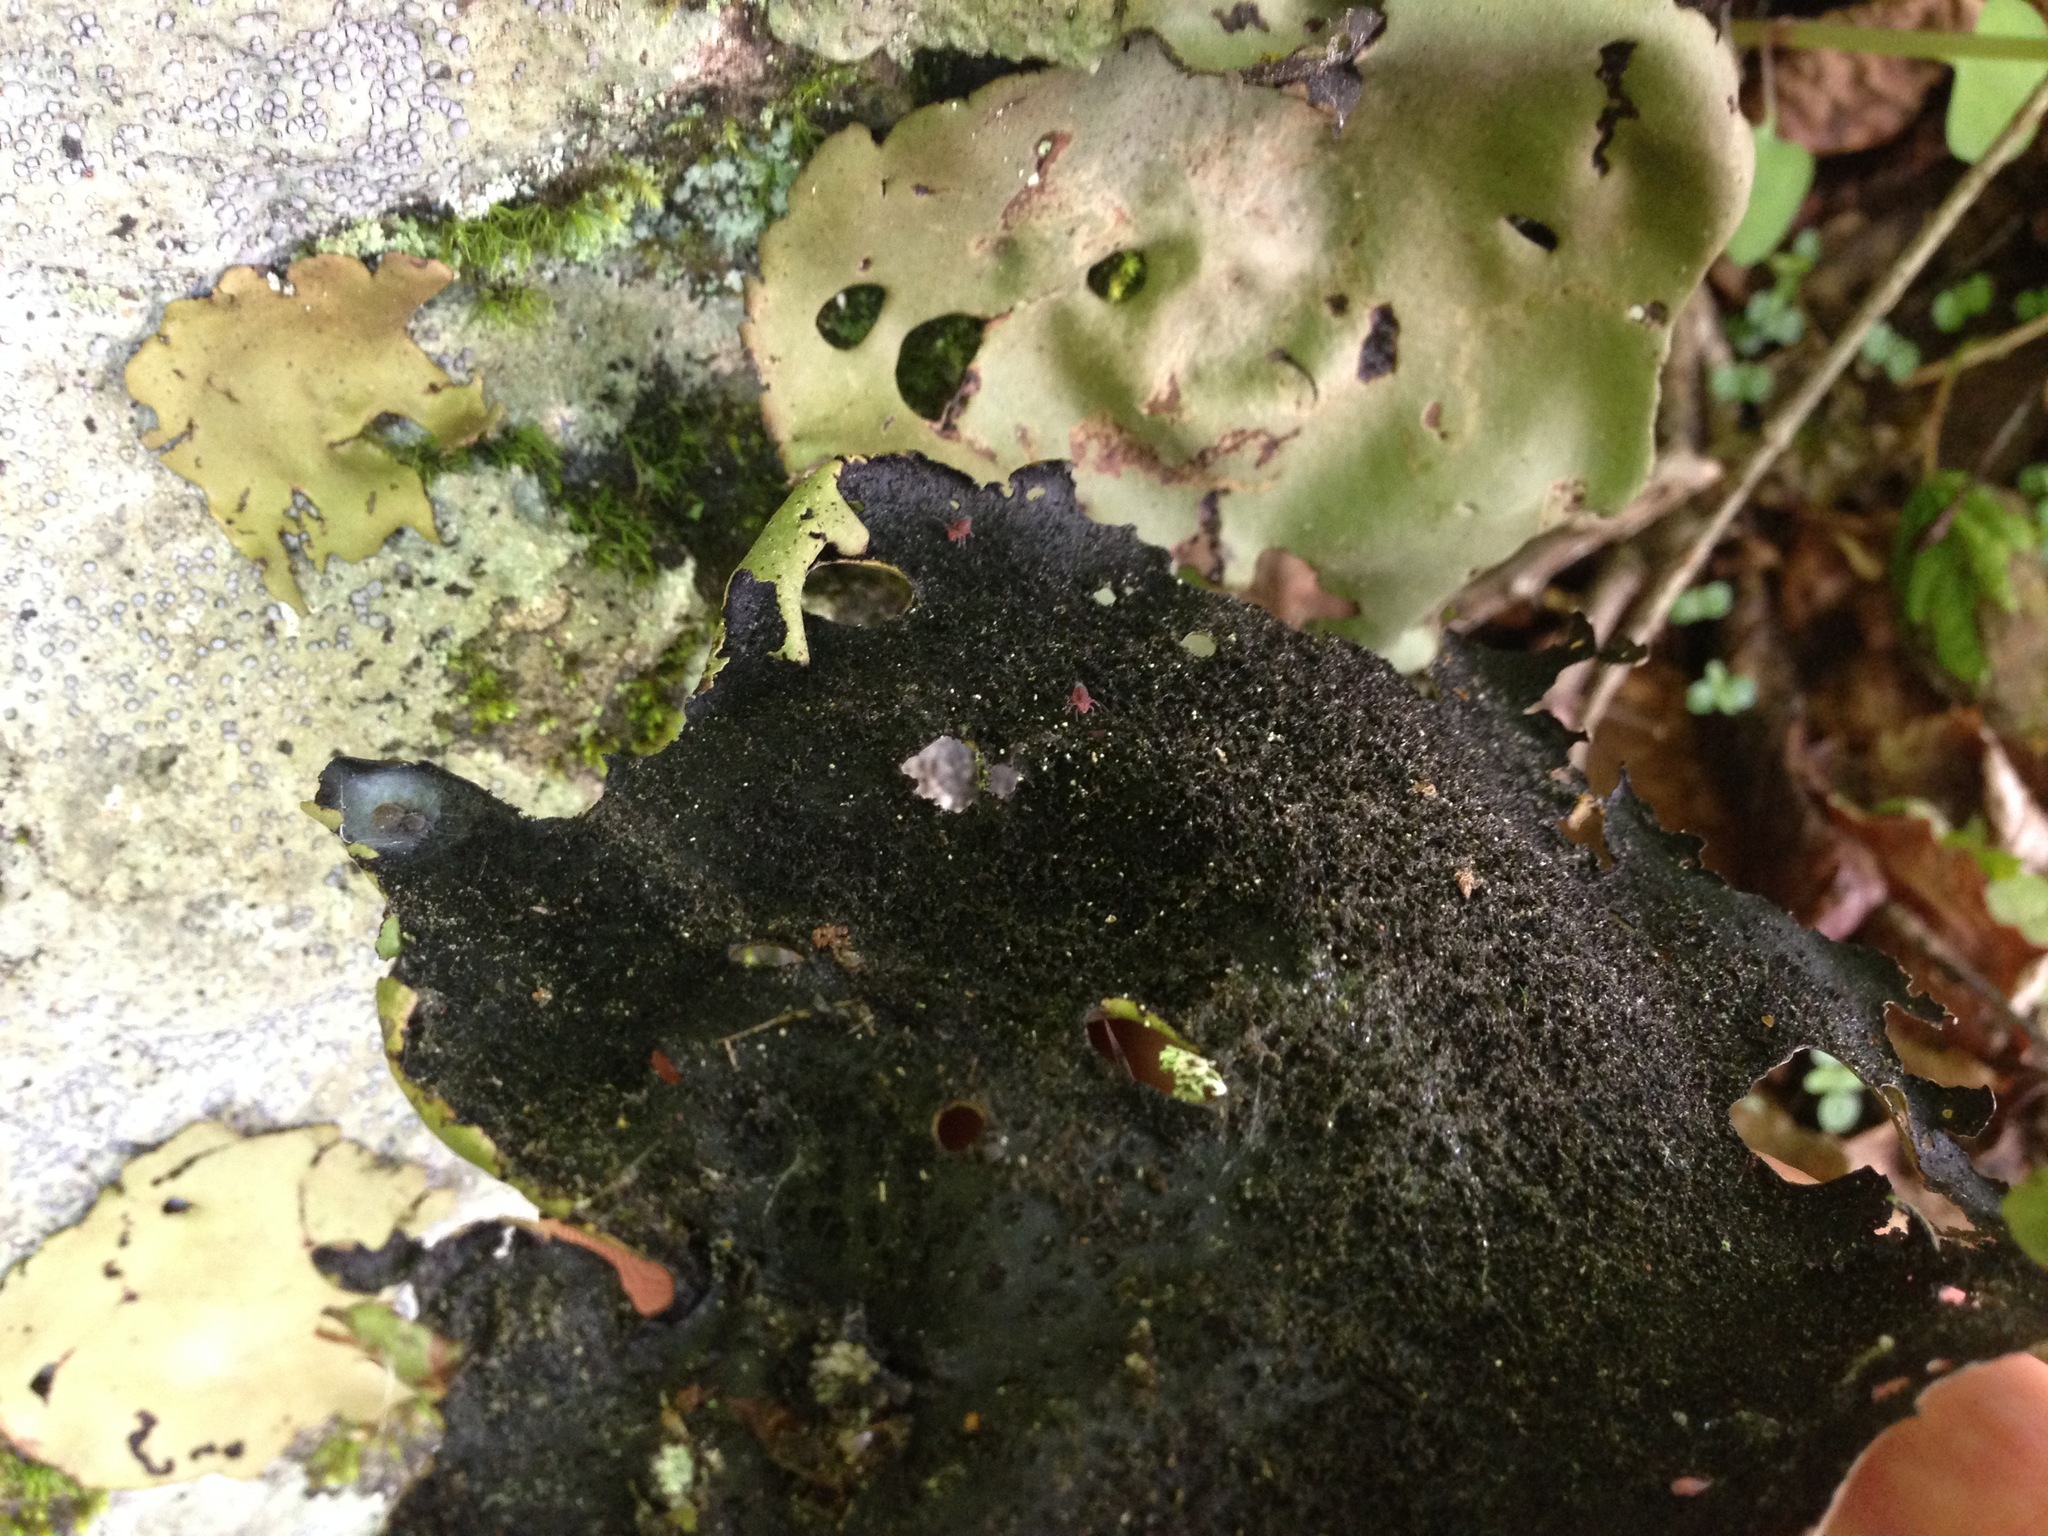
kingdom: Fungi
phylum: Ascomycota
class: Lecanoromycetes
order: Umbilicariales
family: Umbilicariaceae
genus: Umbilicaria
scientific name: Umbilicaria mammulata
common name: Smooth rock tripe
